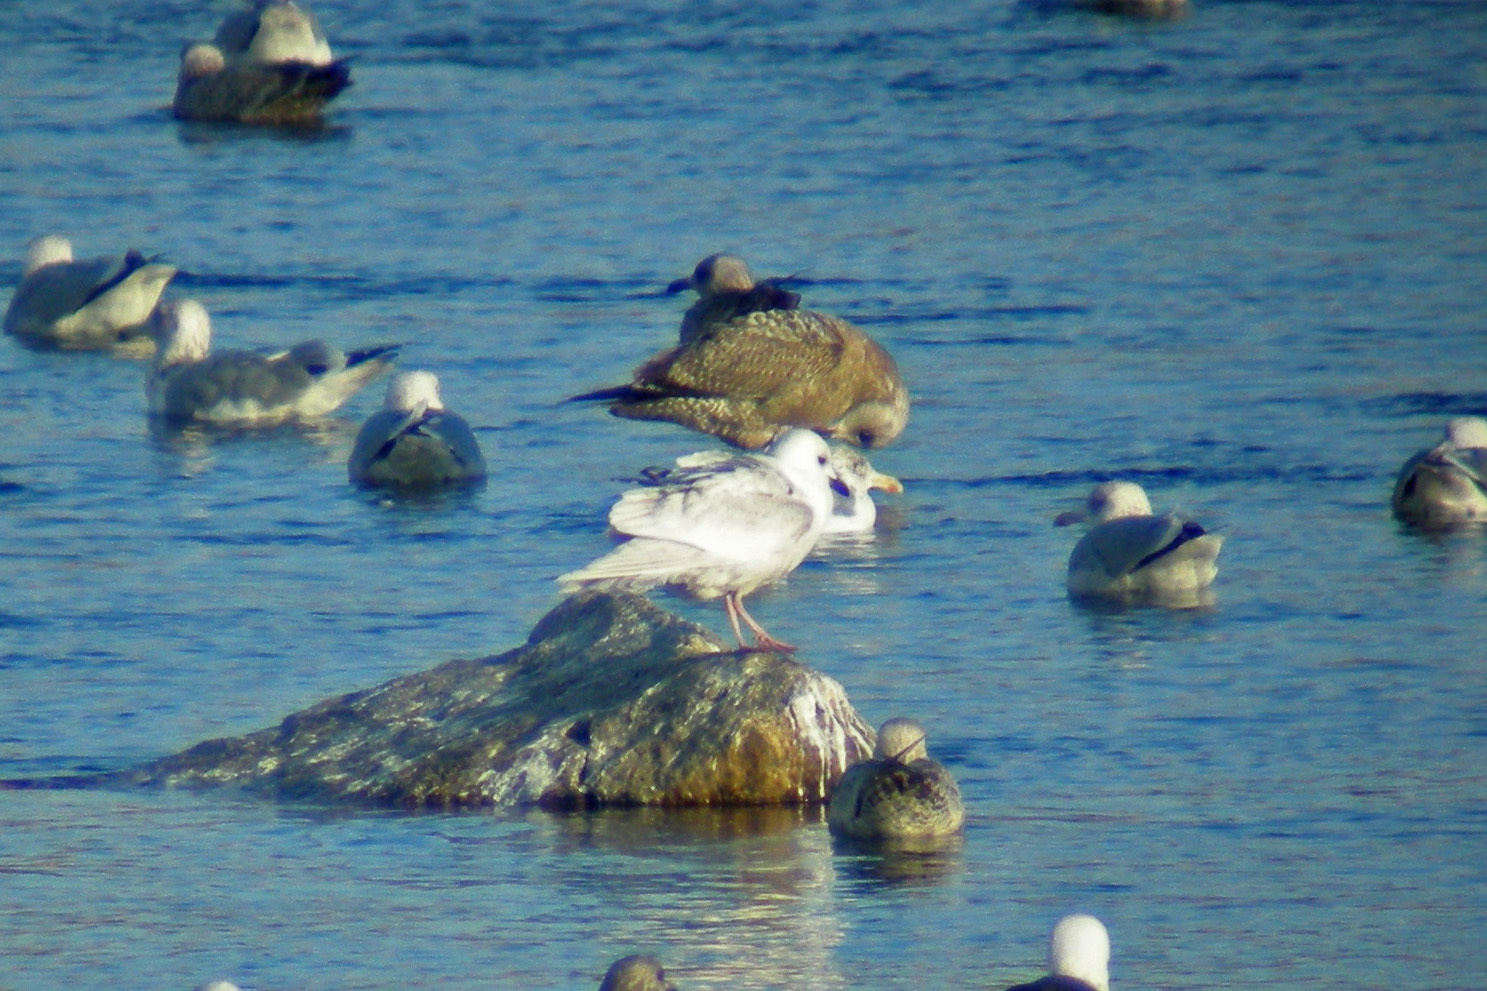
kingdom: Animalia
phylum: Chordata
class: Aves
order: Charadriiformes
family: Laridae
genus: Larus
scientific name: Larus glaucoides
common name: Iceland gull
